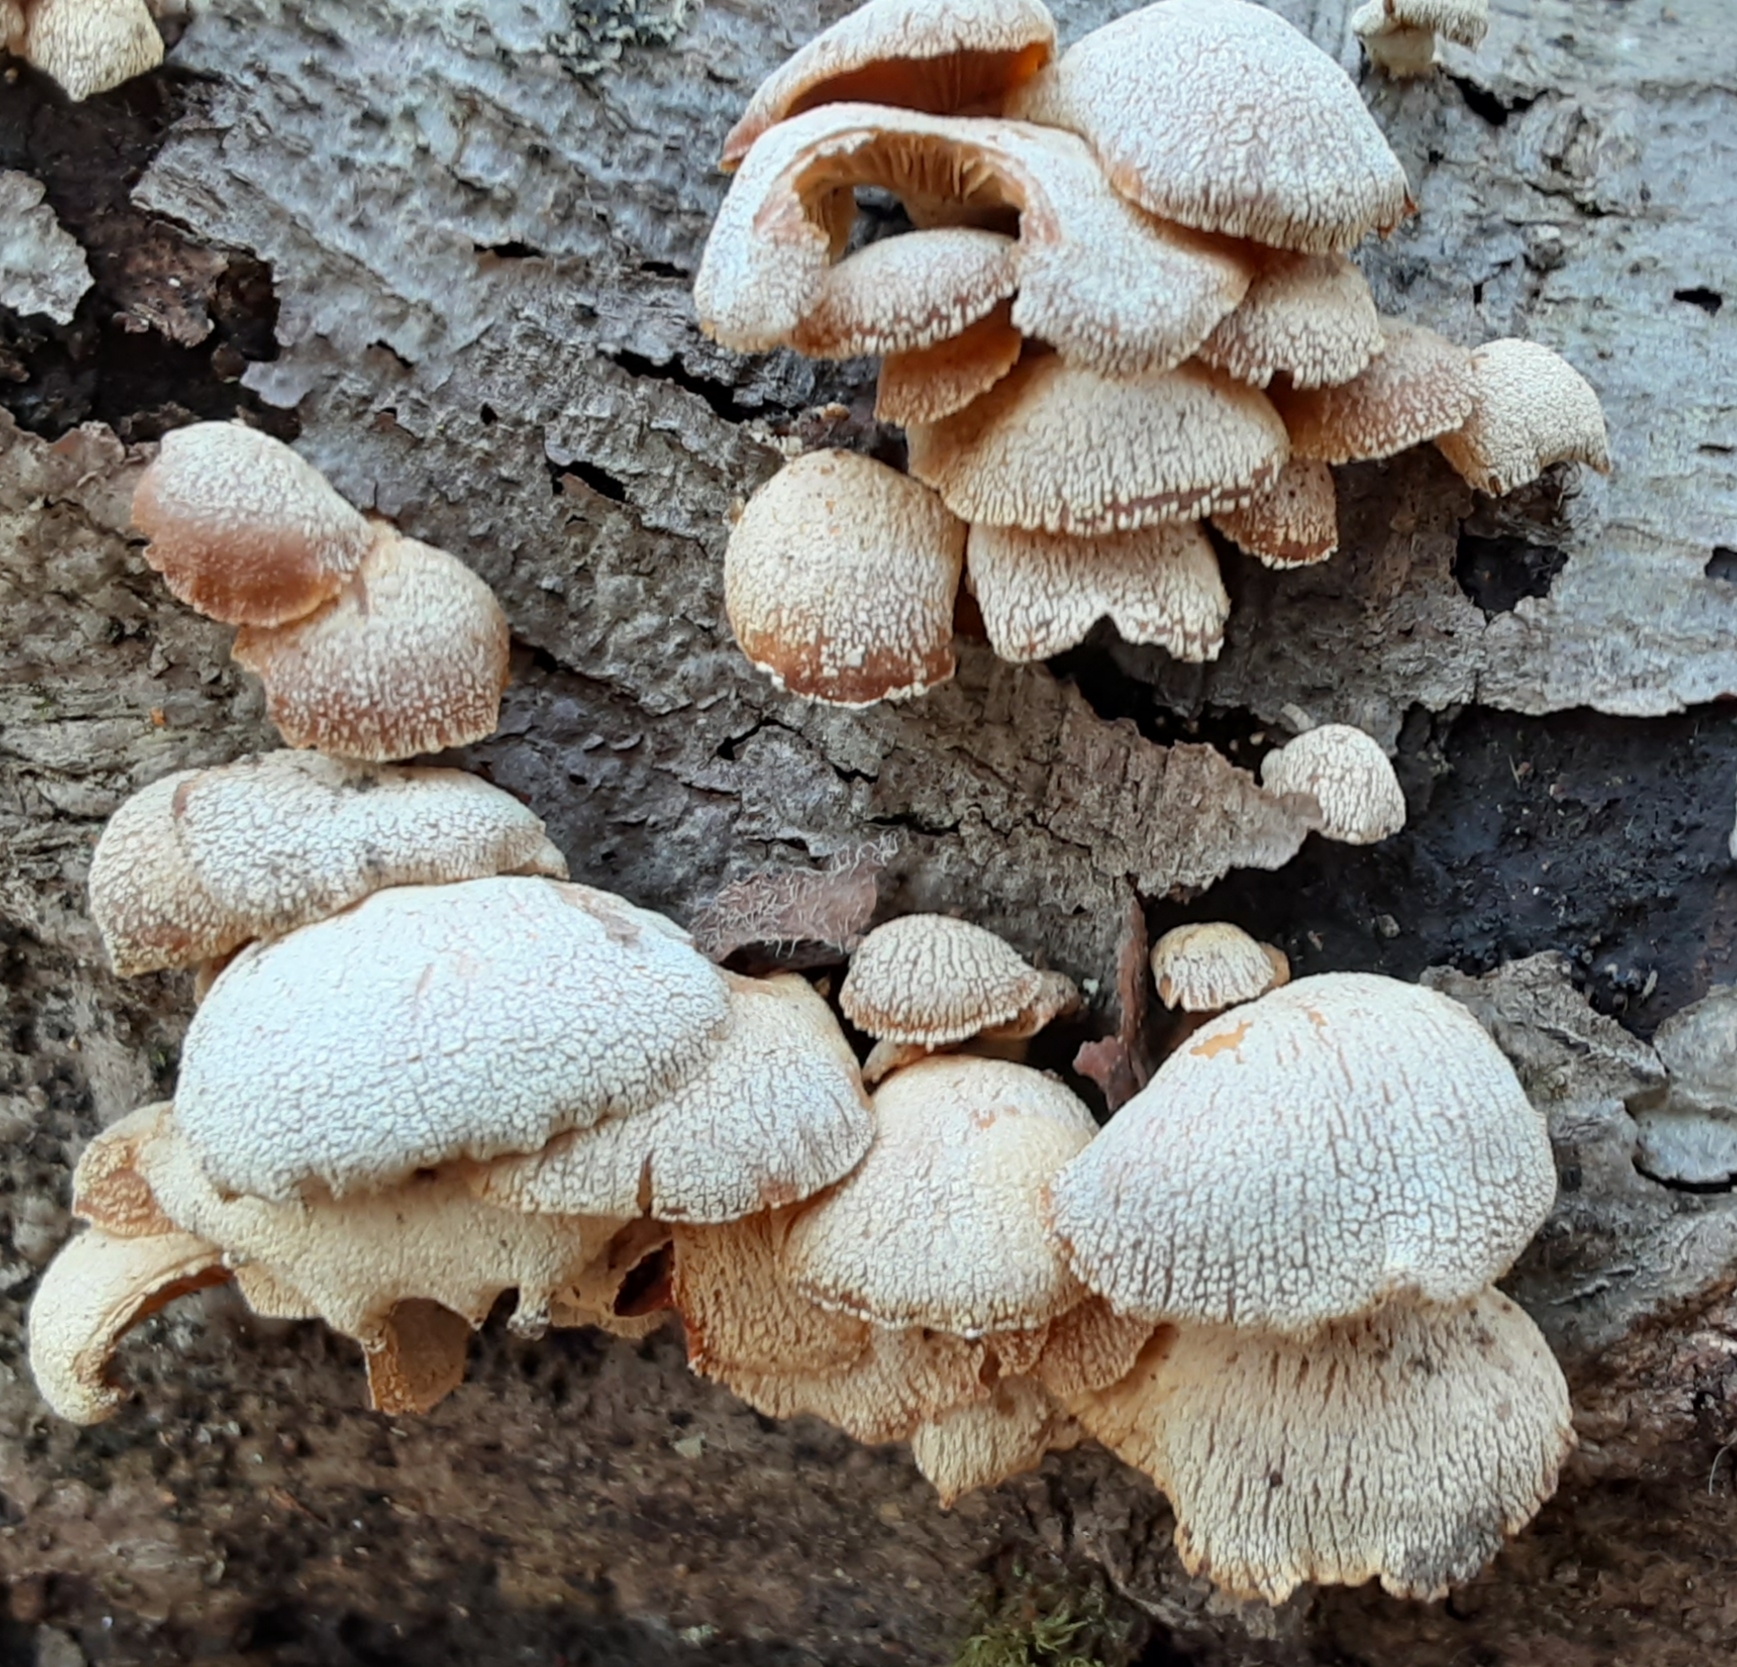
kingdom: Fungi
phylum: Basidiomycota
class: Agaricomycetes
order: Agaricales
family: Mycenaceae
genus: Panellus
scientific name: Panellus stipticus
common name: Bitter oysterling
